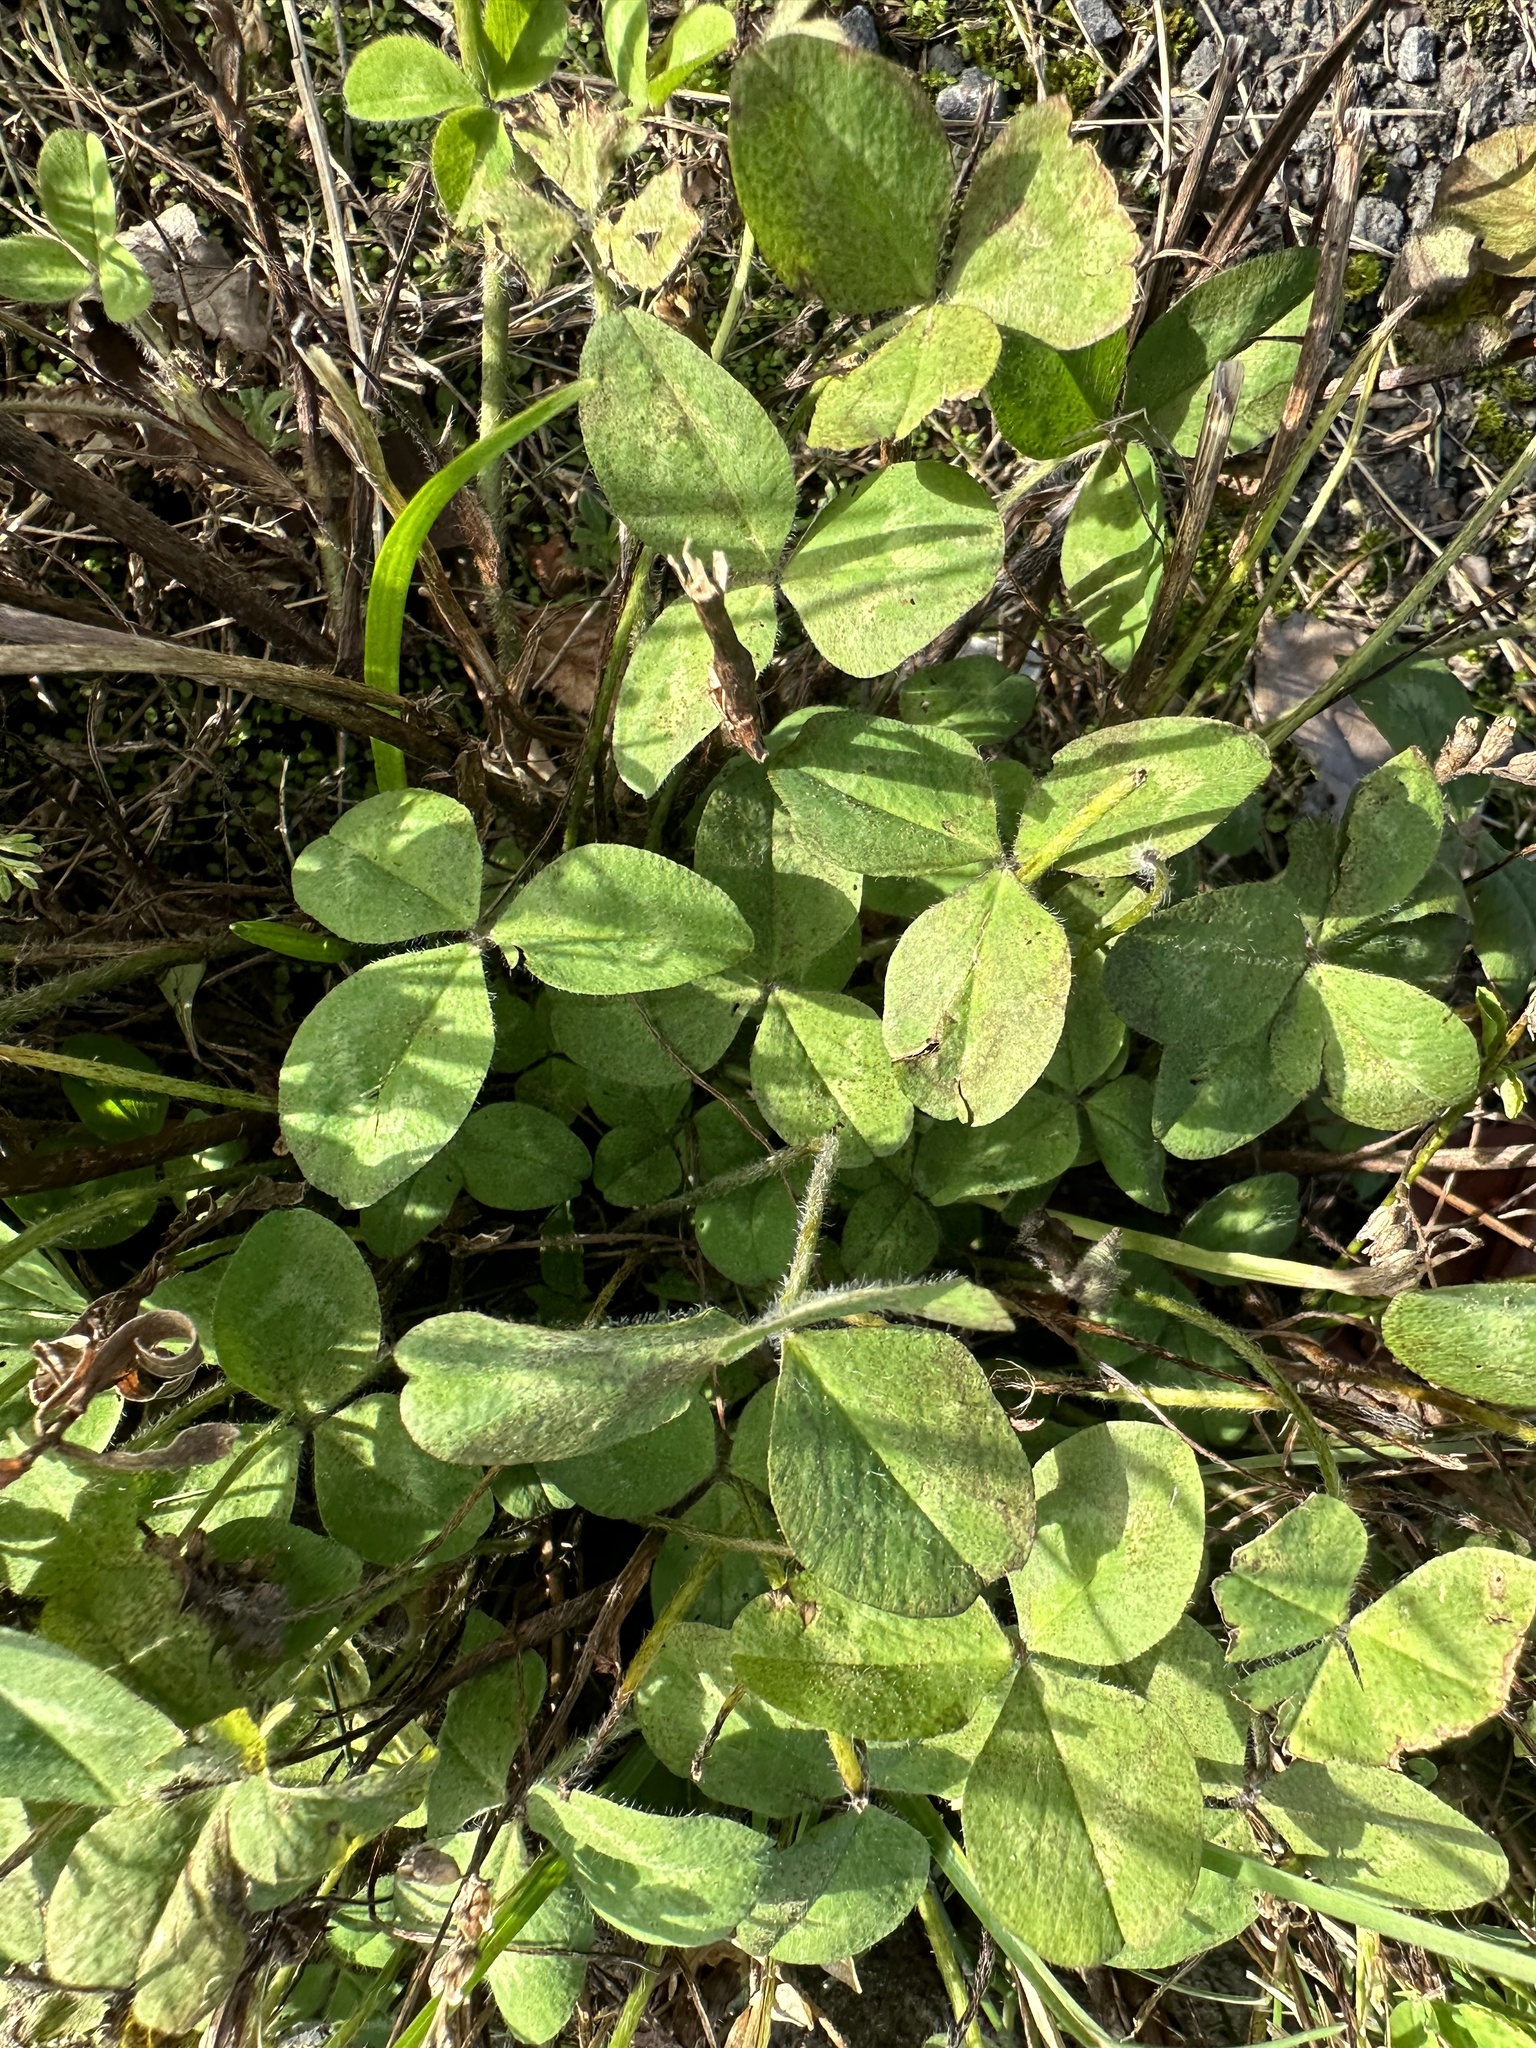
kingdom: Plantae
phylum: Tracheophyta
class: Magnoliopsida
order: Fabales
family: Fabaceae
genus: Trifolium
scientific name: Trifolium pratense
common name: Red clover
